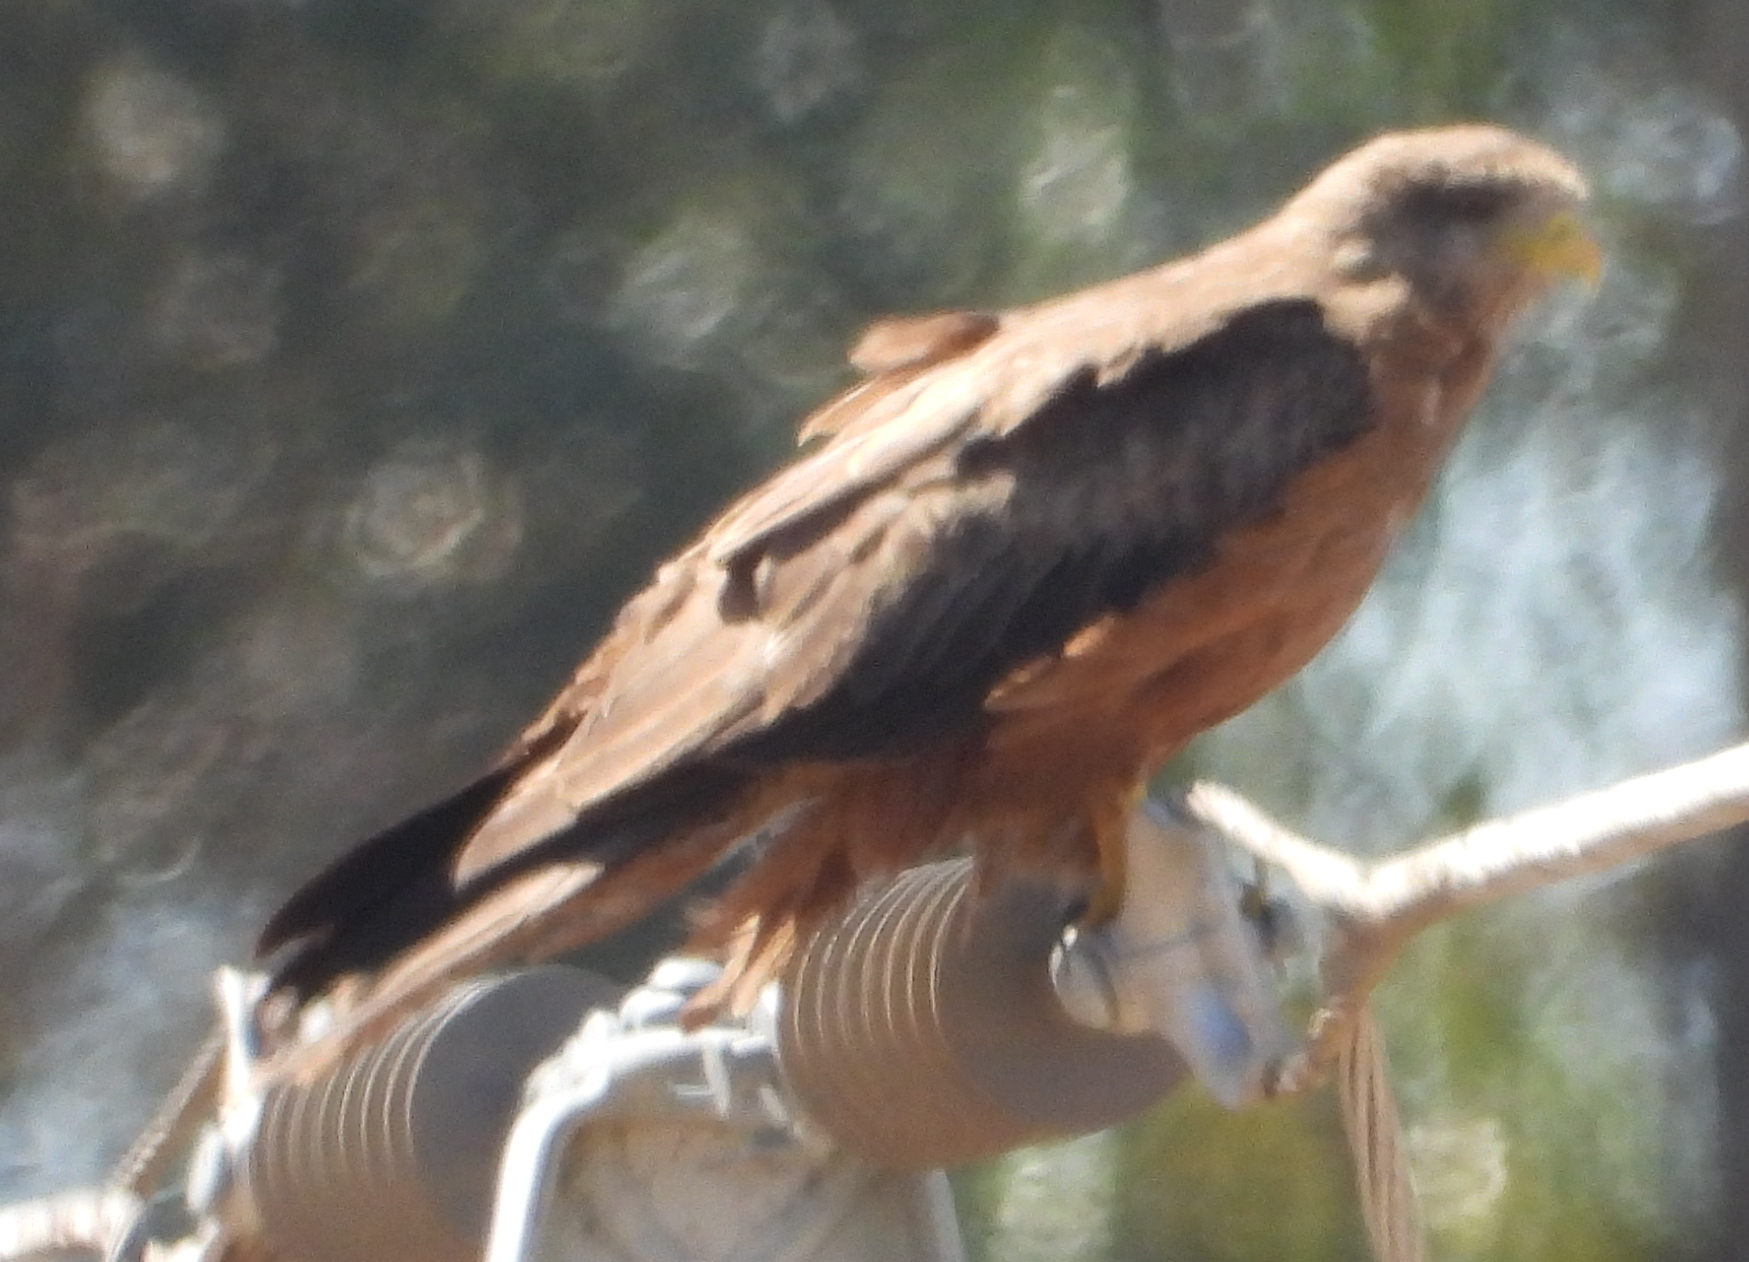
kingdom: Animalia
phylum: Chordata
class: Aves
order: Accipitriformes
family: Accipitridae
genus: Milvus
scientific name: Milvus migrans
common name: Black kite
